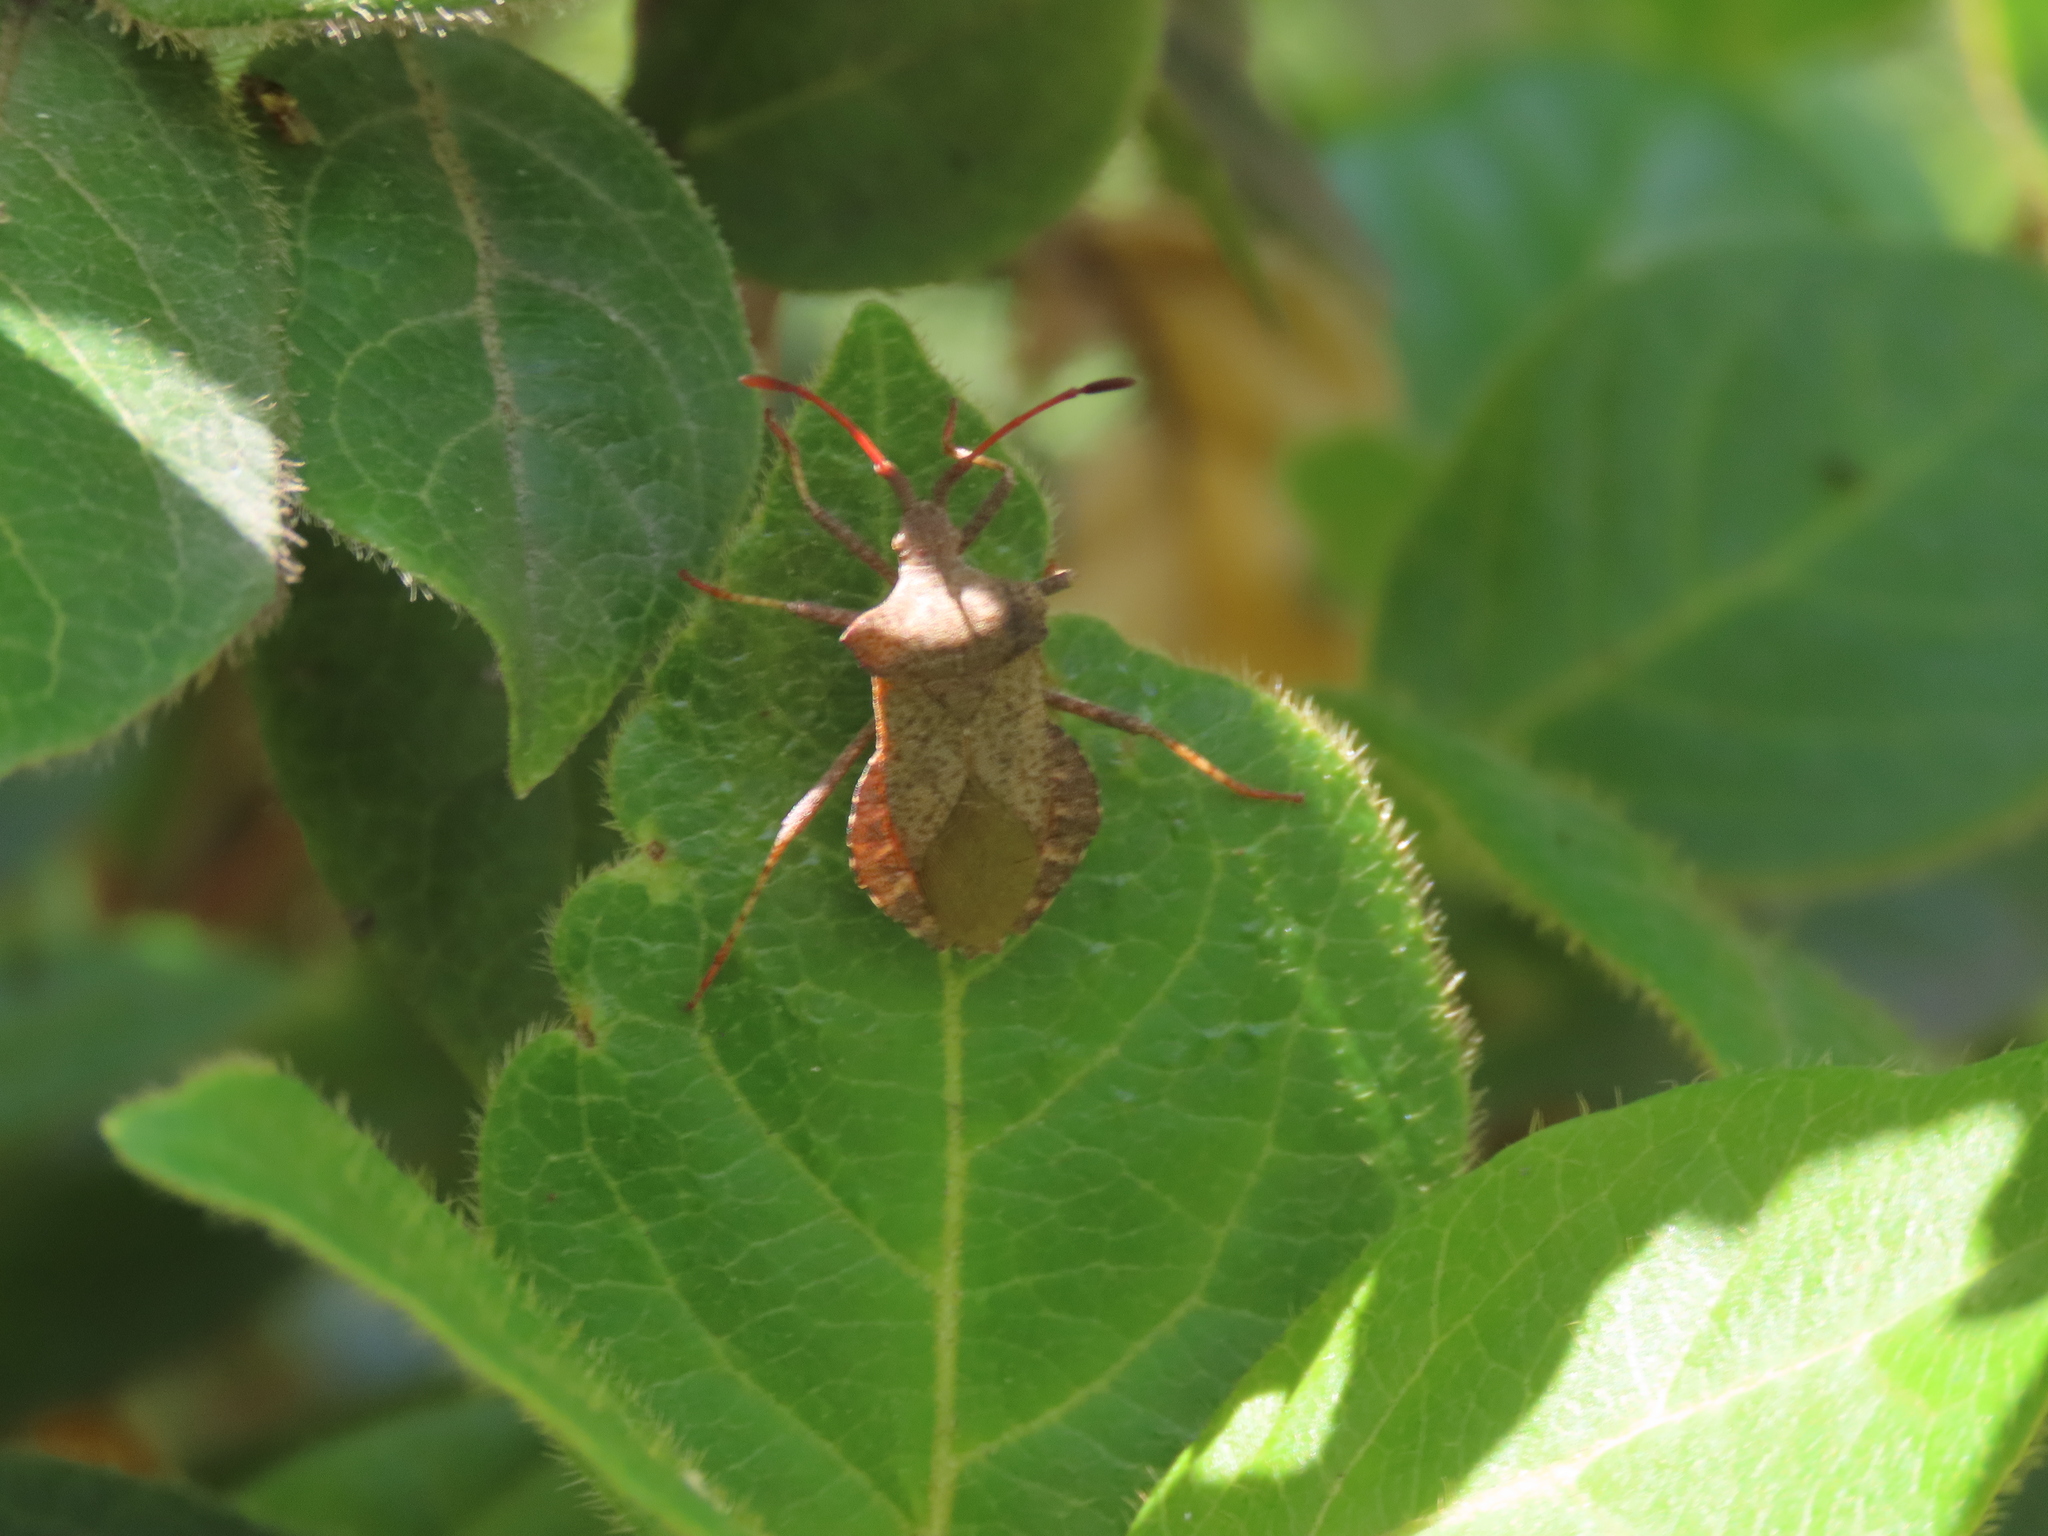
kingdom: Animalia
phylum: Arthropoda
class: Insecta
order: Hemiptera
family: Coreidae
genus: Coreus
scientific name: Coreus marginatus
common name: Dock bug
